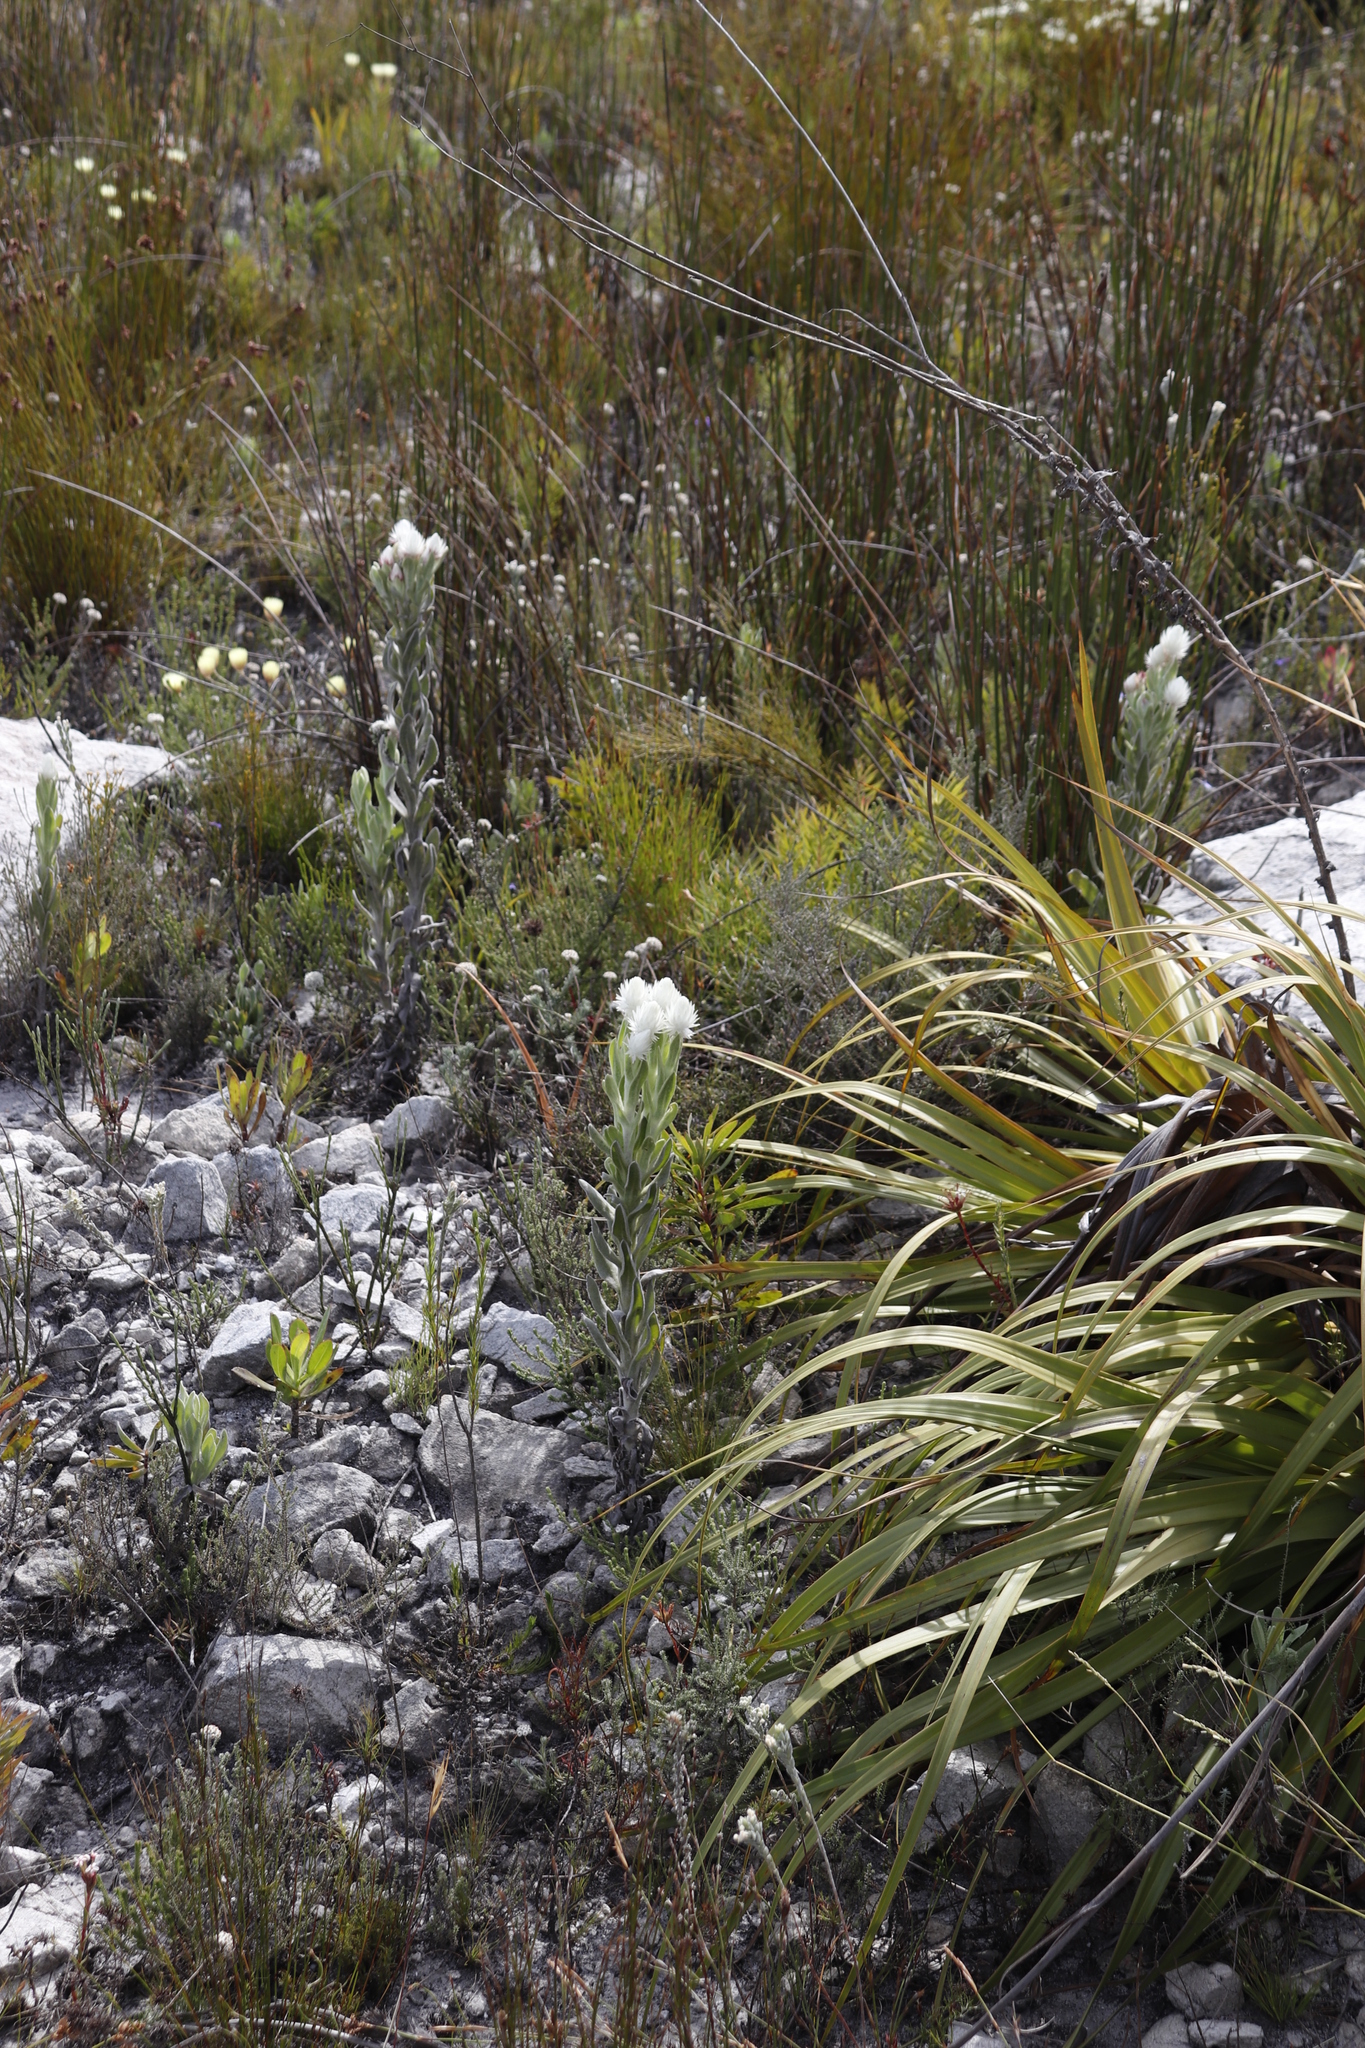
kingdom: Plantae
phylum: Tracheophyta
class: Magnoliopsida
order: Asterales
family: Asteraceae
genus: Syncarpha
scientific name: Syncarpha vestita
